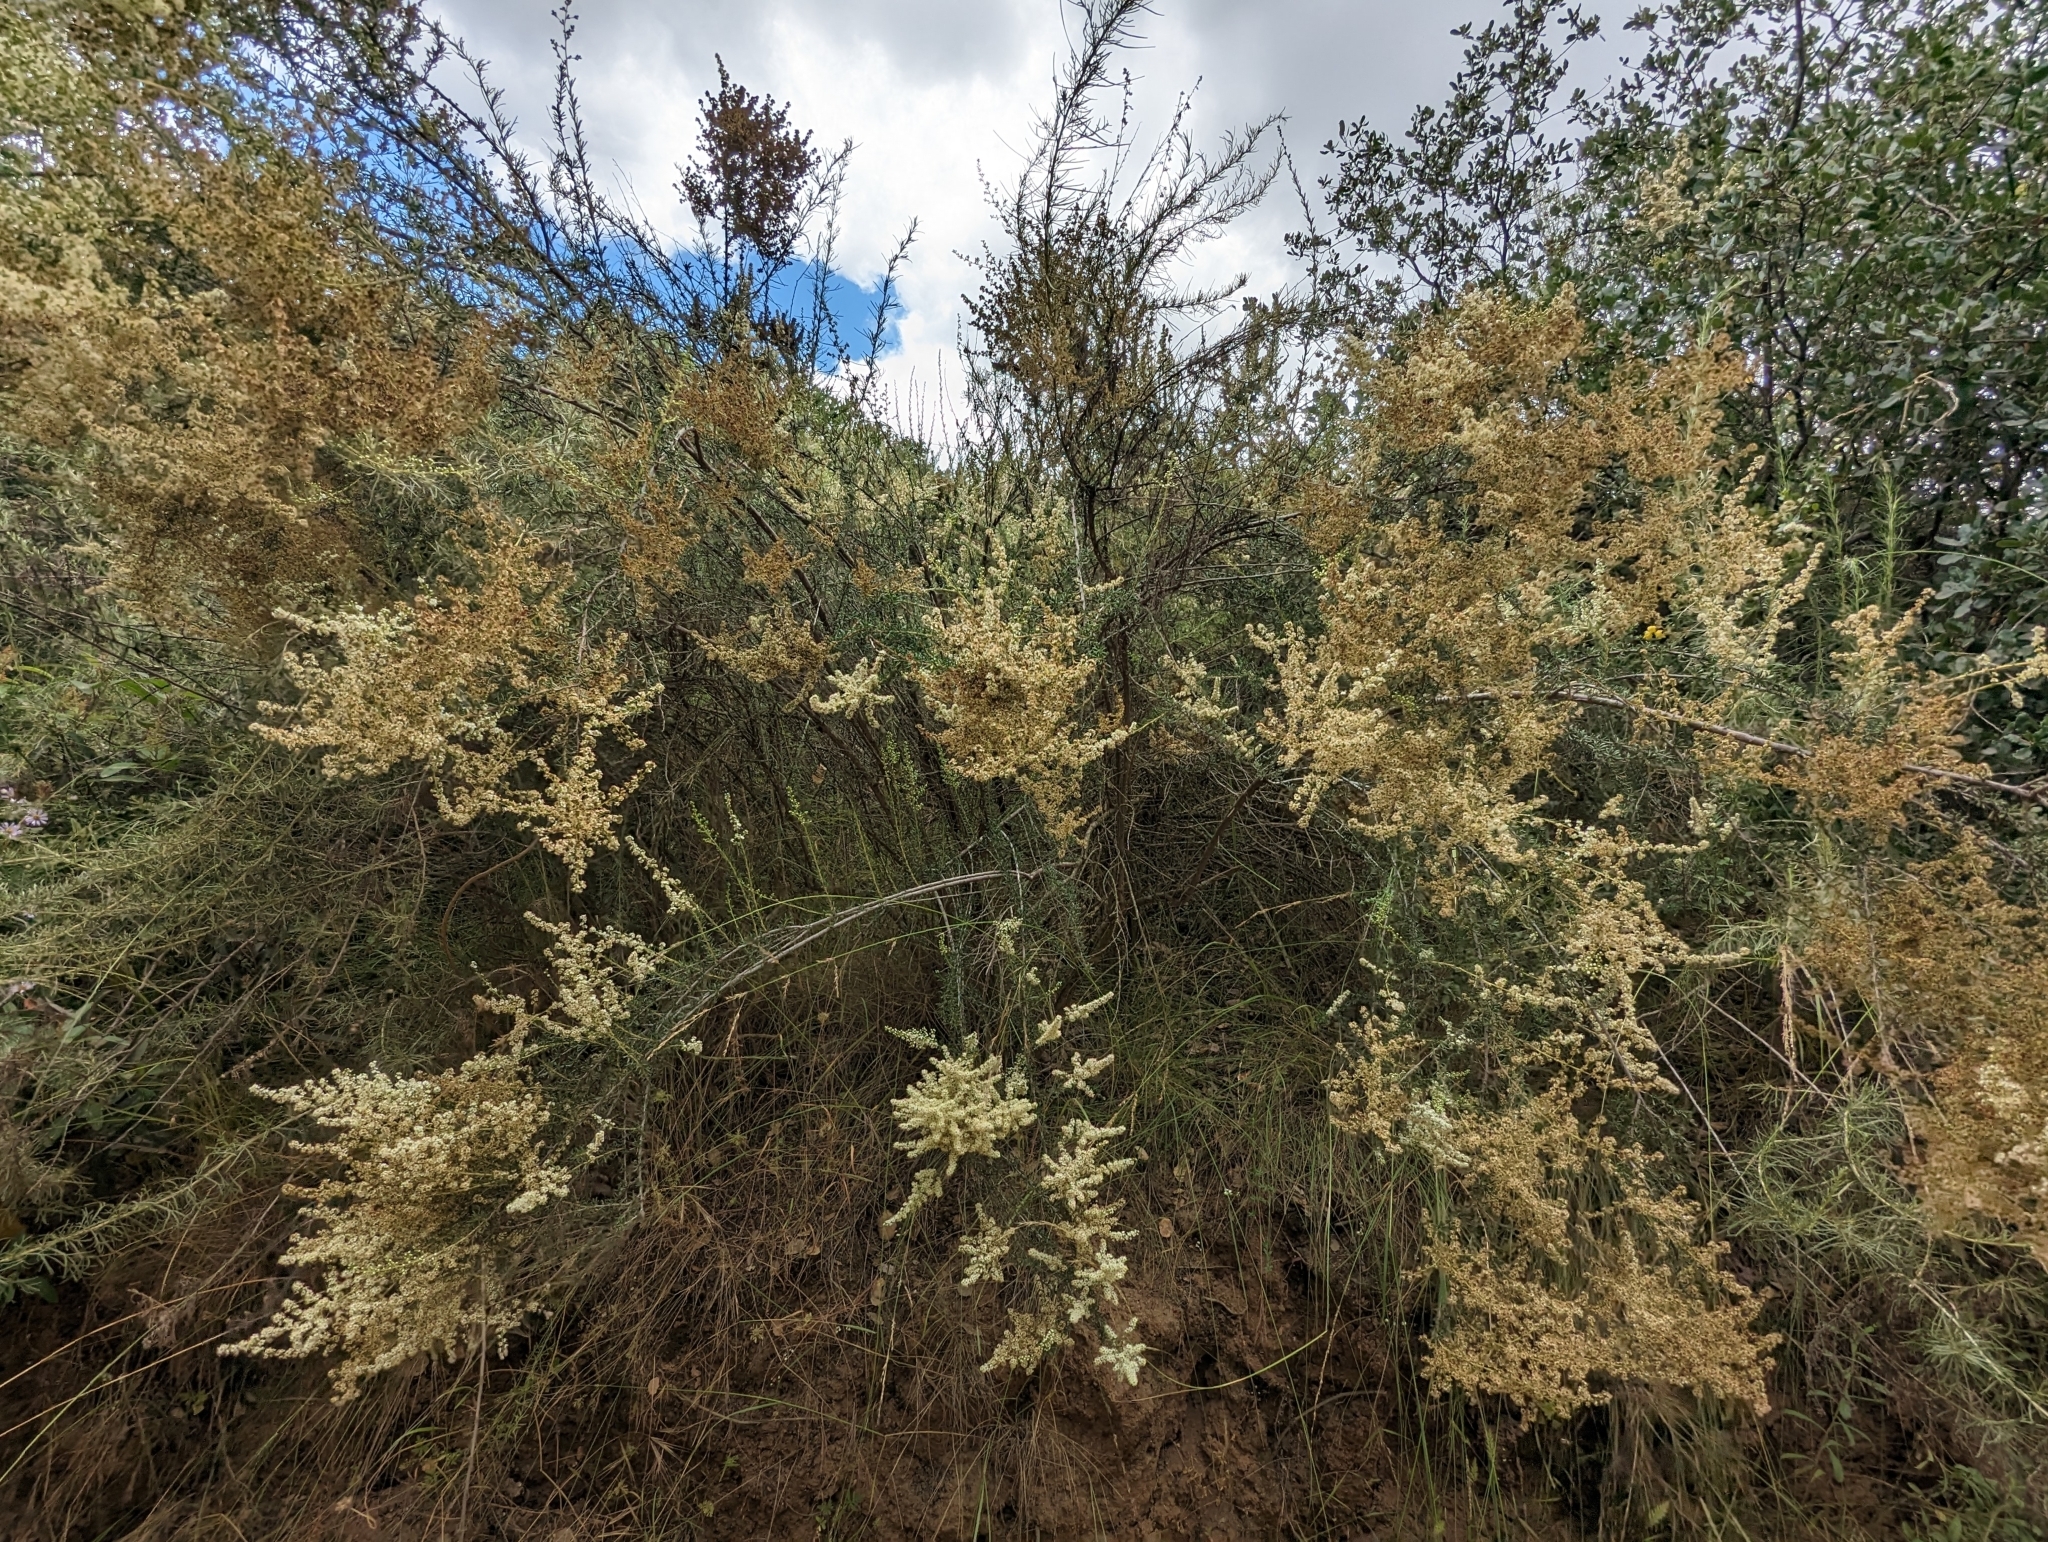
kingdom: Plantae
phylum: Tracheophyta
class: Magnoliopsida
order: Rosales
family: Rosaceae
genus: Adenostoma
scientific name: Adenostoma fasciculatum
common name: Chamise
